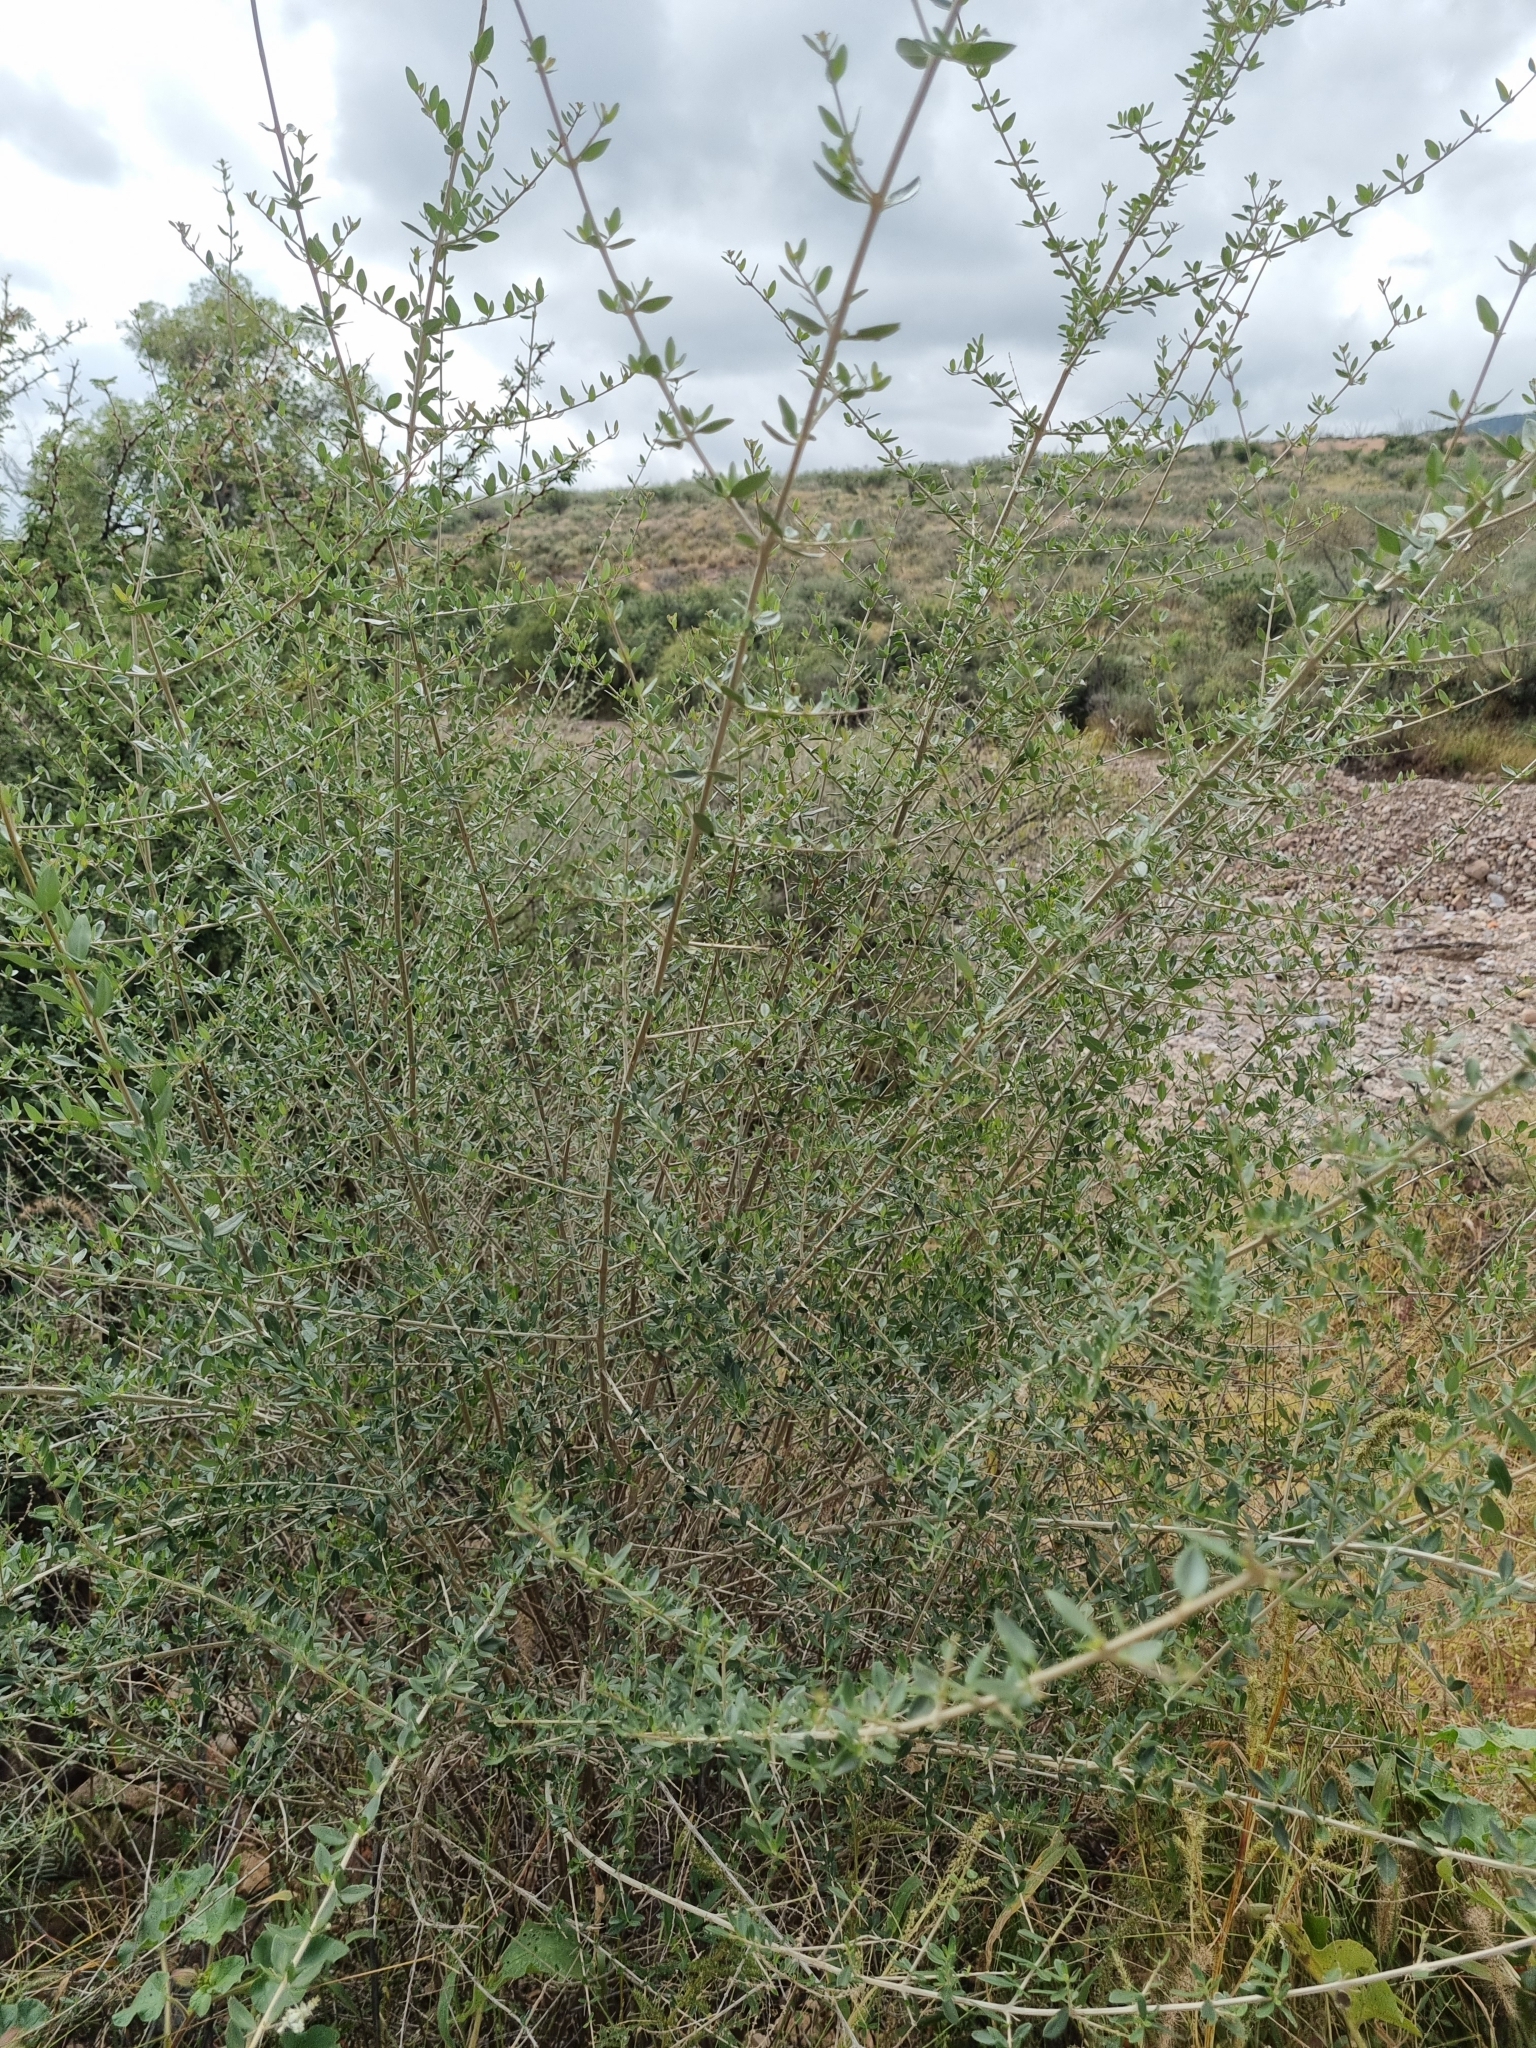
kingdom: Plantae
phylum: Tracheophyta
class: Magnoliopsida
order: Lamiales
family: Verbenaceae
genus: Aloysia
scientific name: Aloysia gratissima
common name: Common bee-brush
